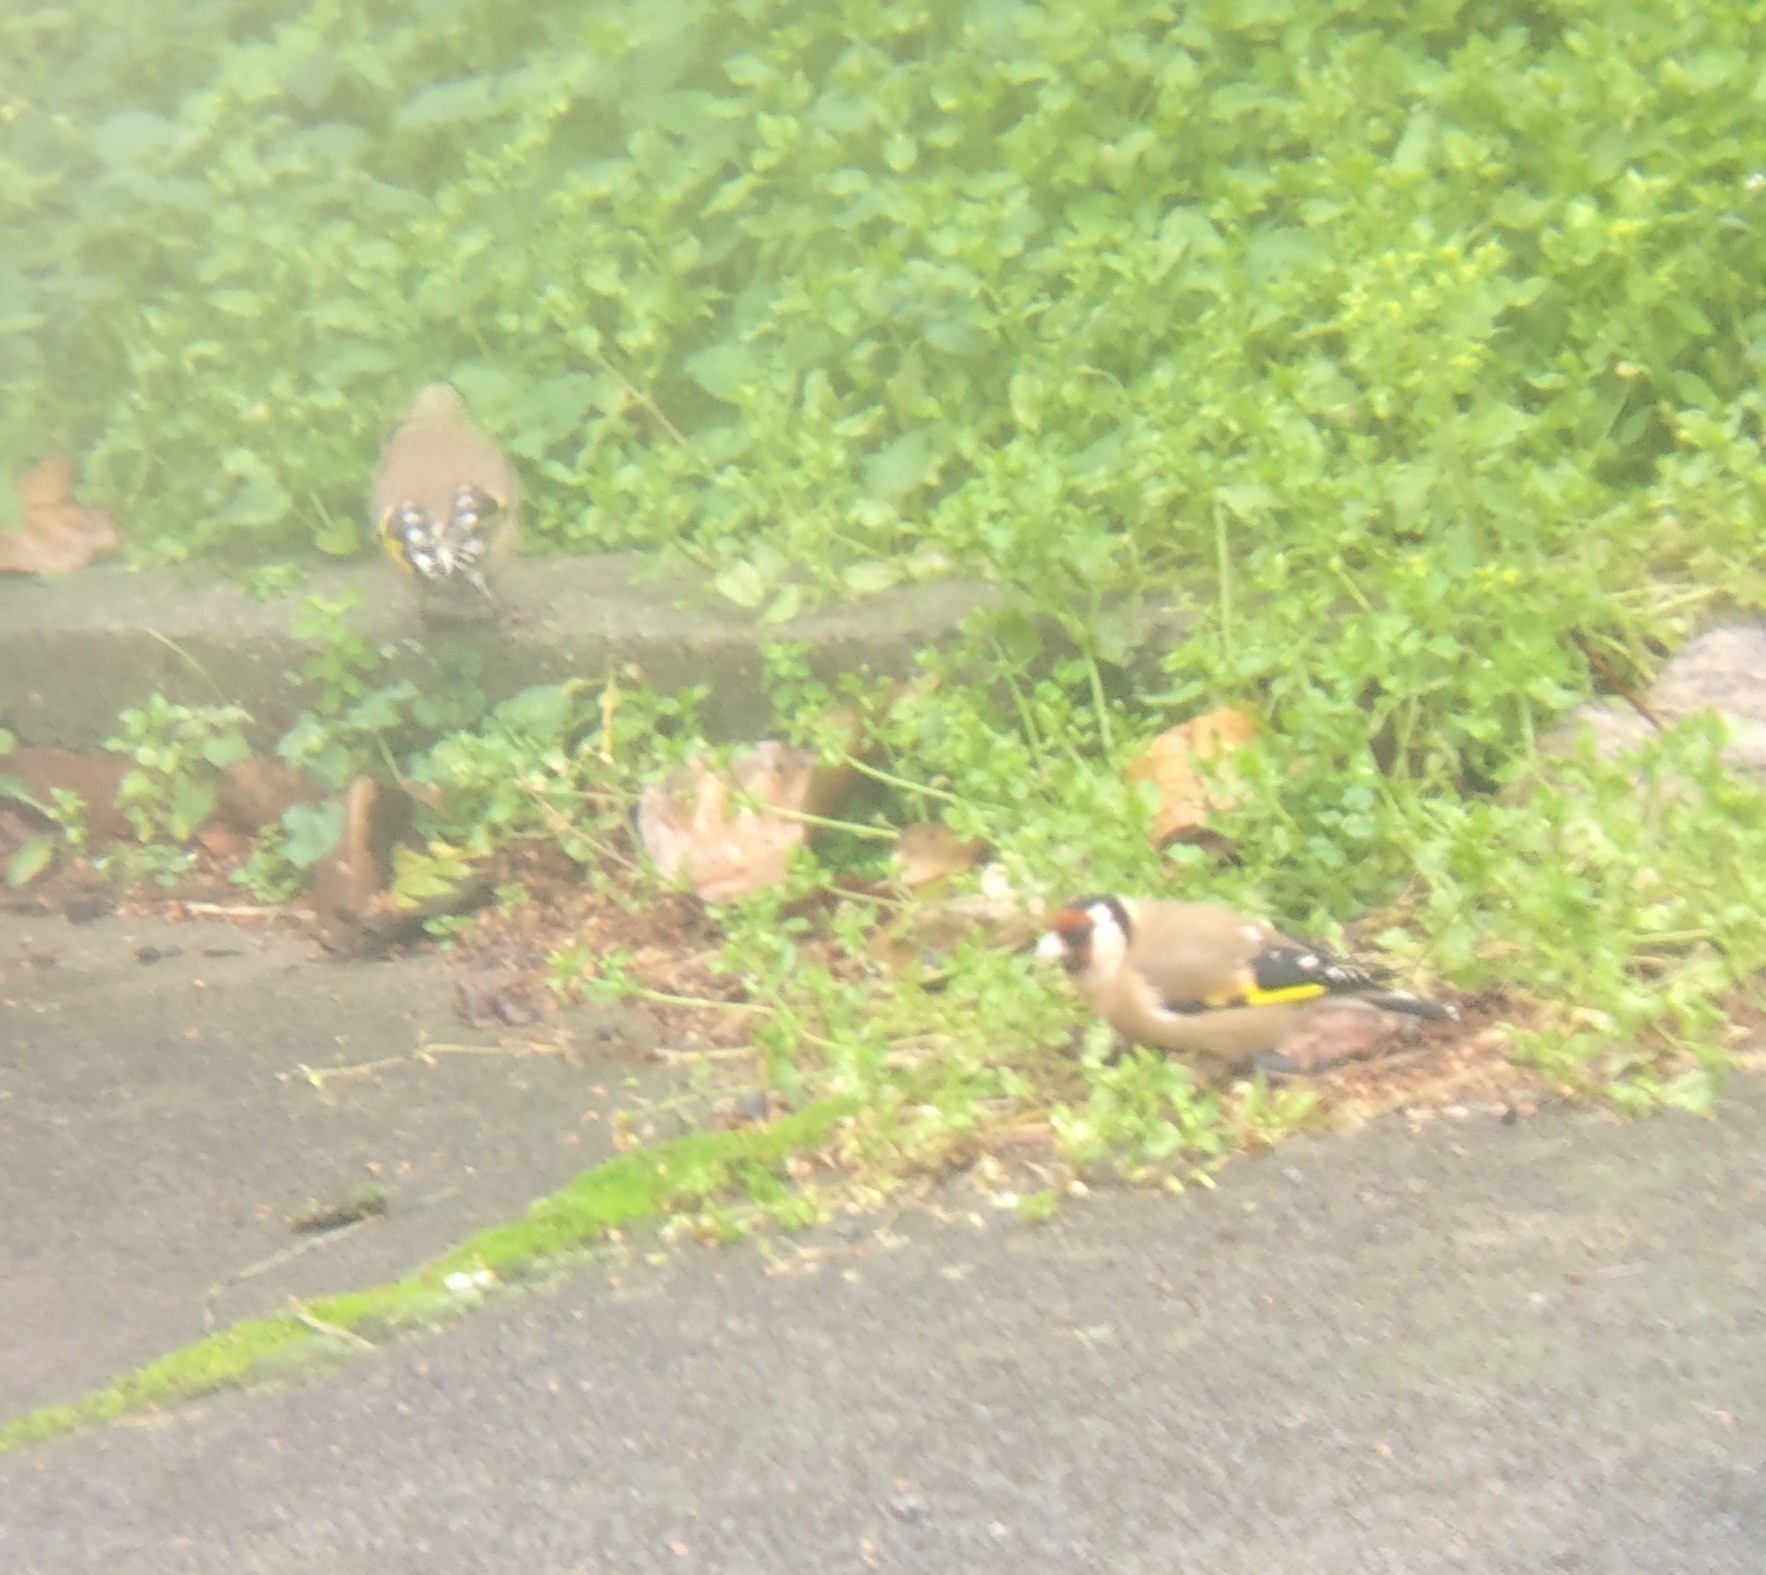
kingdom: Animalia
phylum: Chordata
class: Aves
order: Passeriformes
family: Fringillidae
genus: Carduelis
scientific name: Carduelis carduelis
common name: European goldfinch
